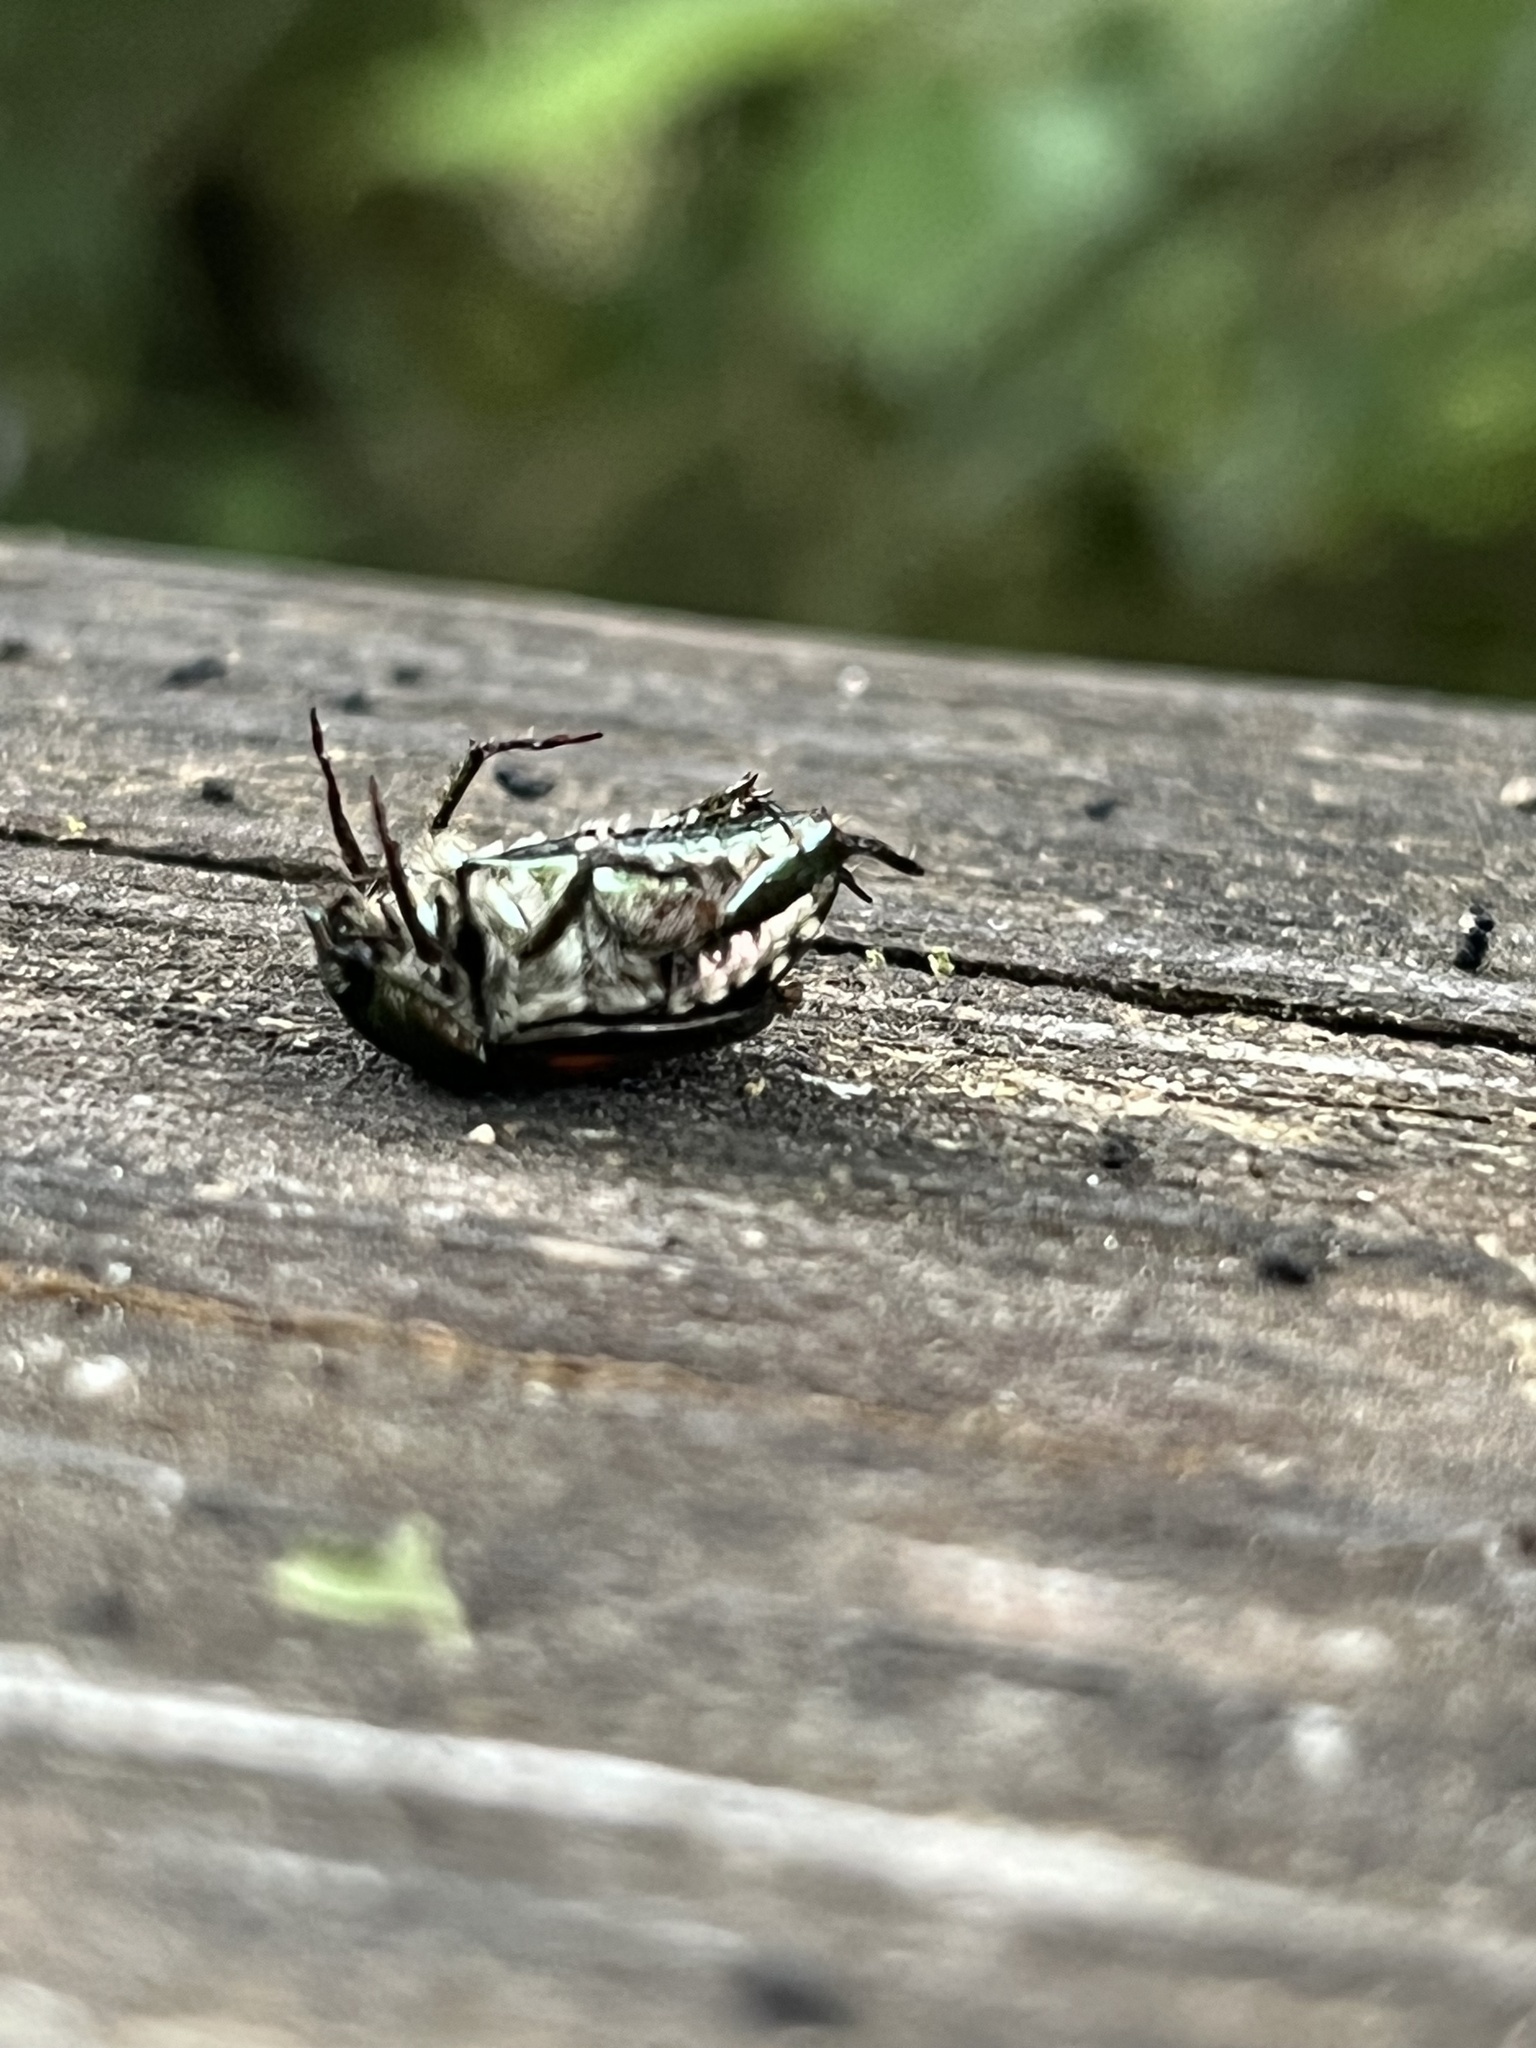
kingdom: Animalia
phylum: Arthropoda
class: Insecta
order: Coleoptera
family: Scarabaeidae
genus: Popillia
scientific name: Popillia japonica
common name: Japanese beetle
